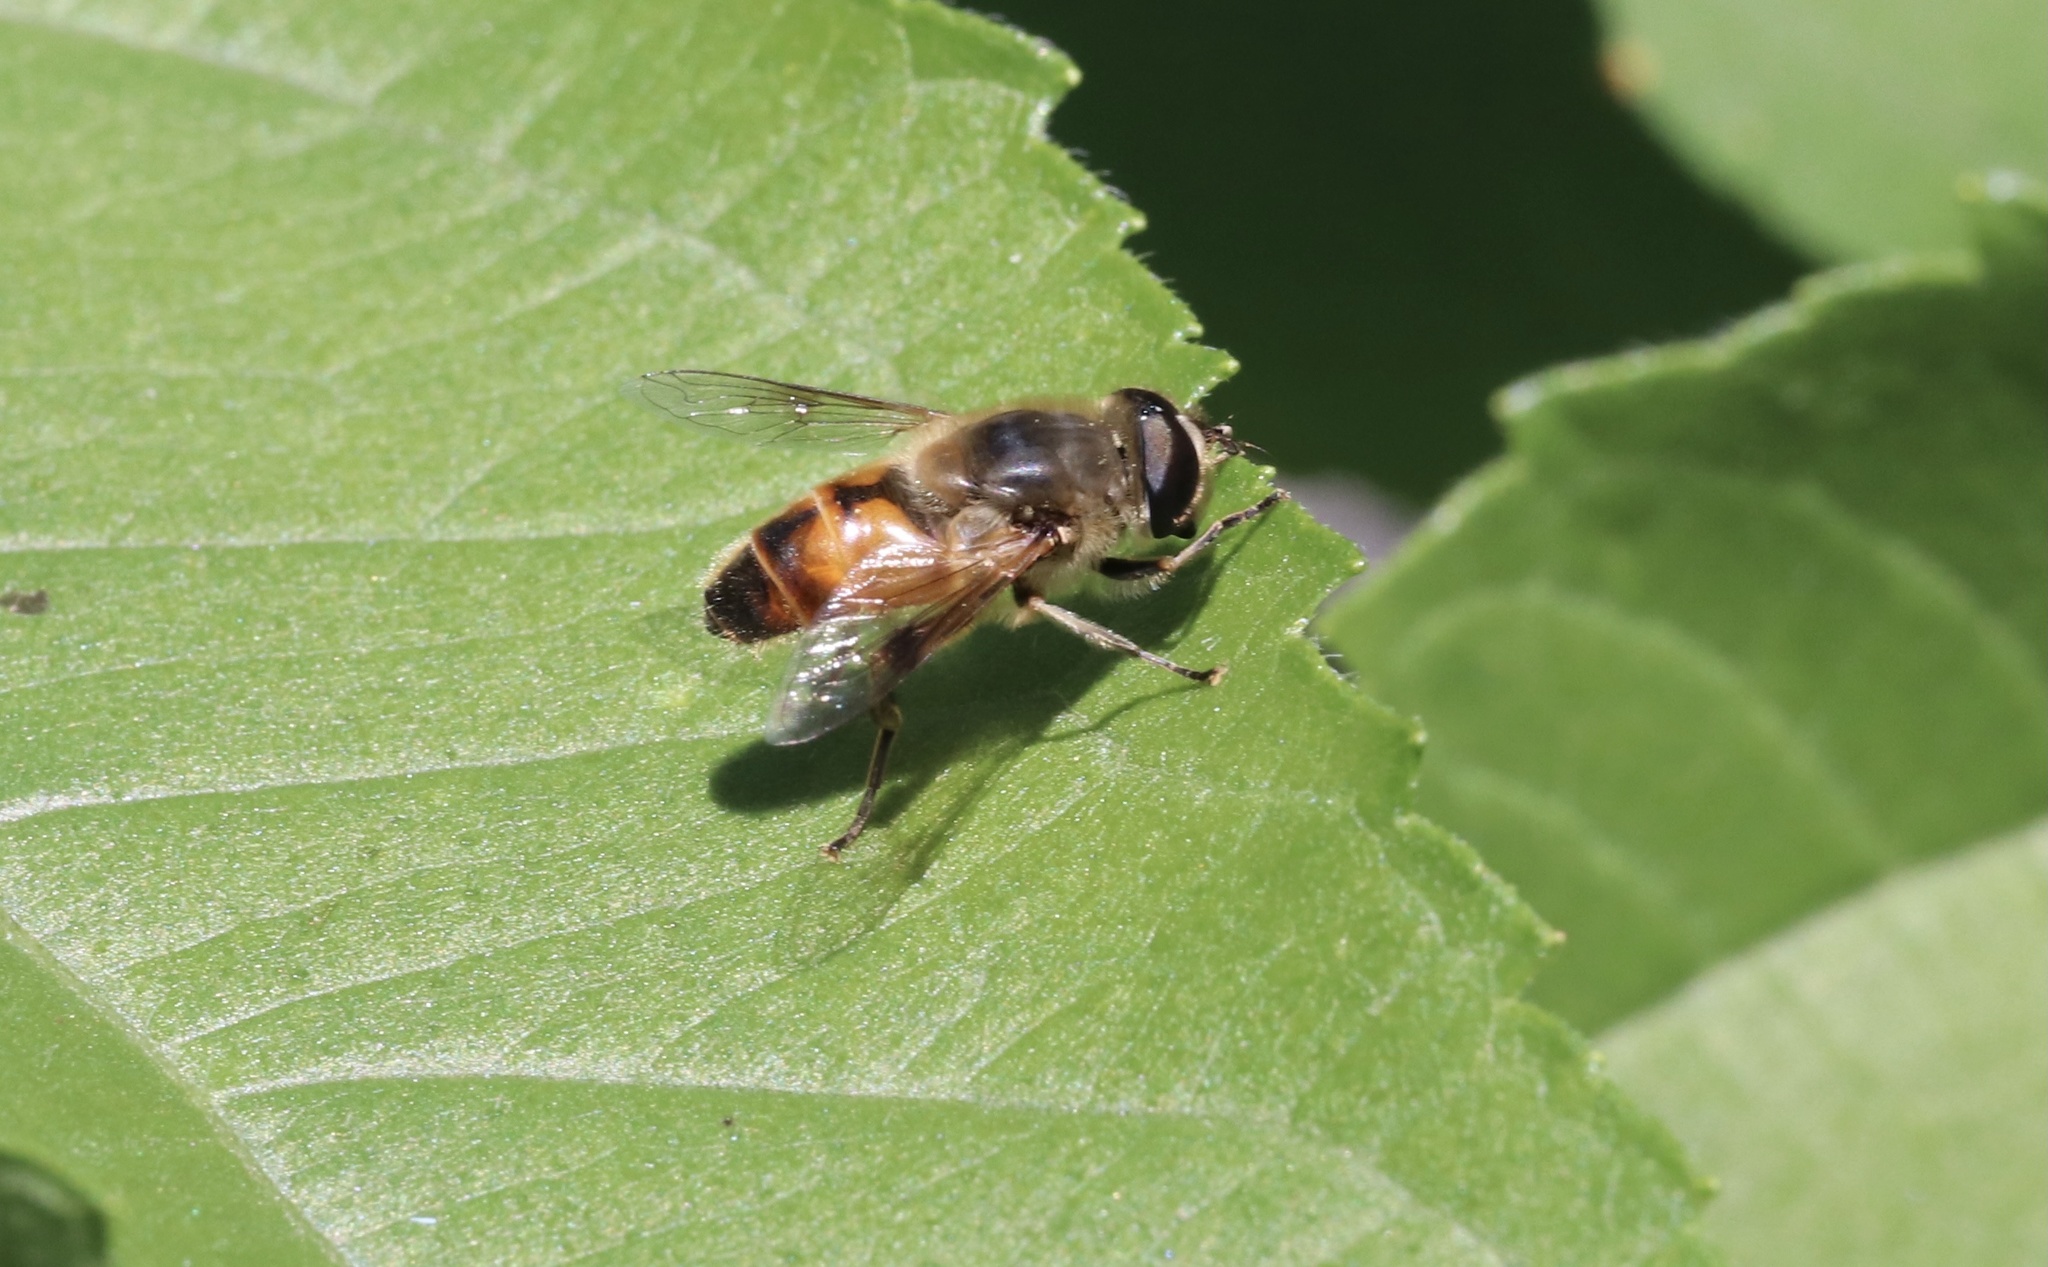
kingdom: Animalia
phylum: Arthropoda
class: Insecta
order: Diptera
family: Syrphidae
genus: Eristalis
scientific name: Eristalis tenax
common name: Drone fly
